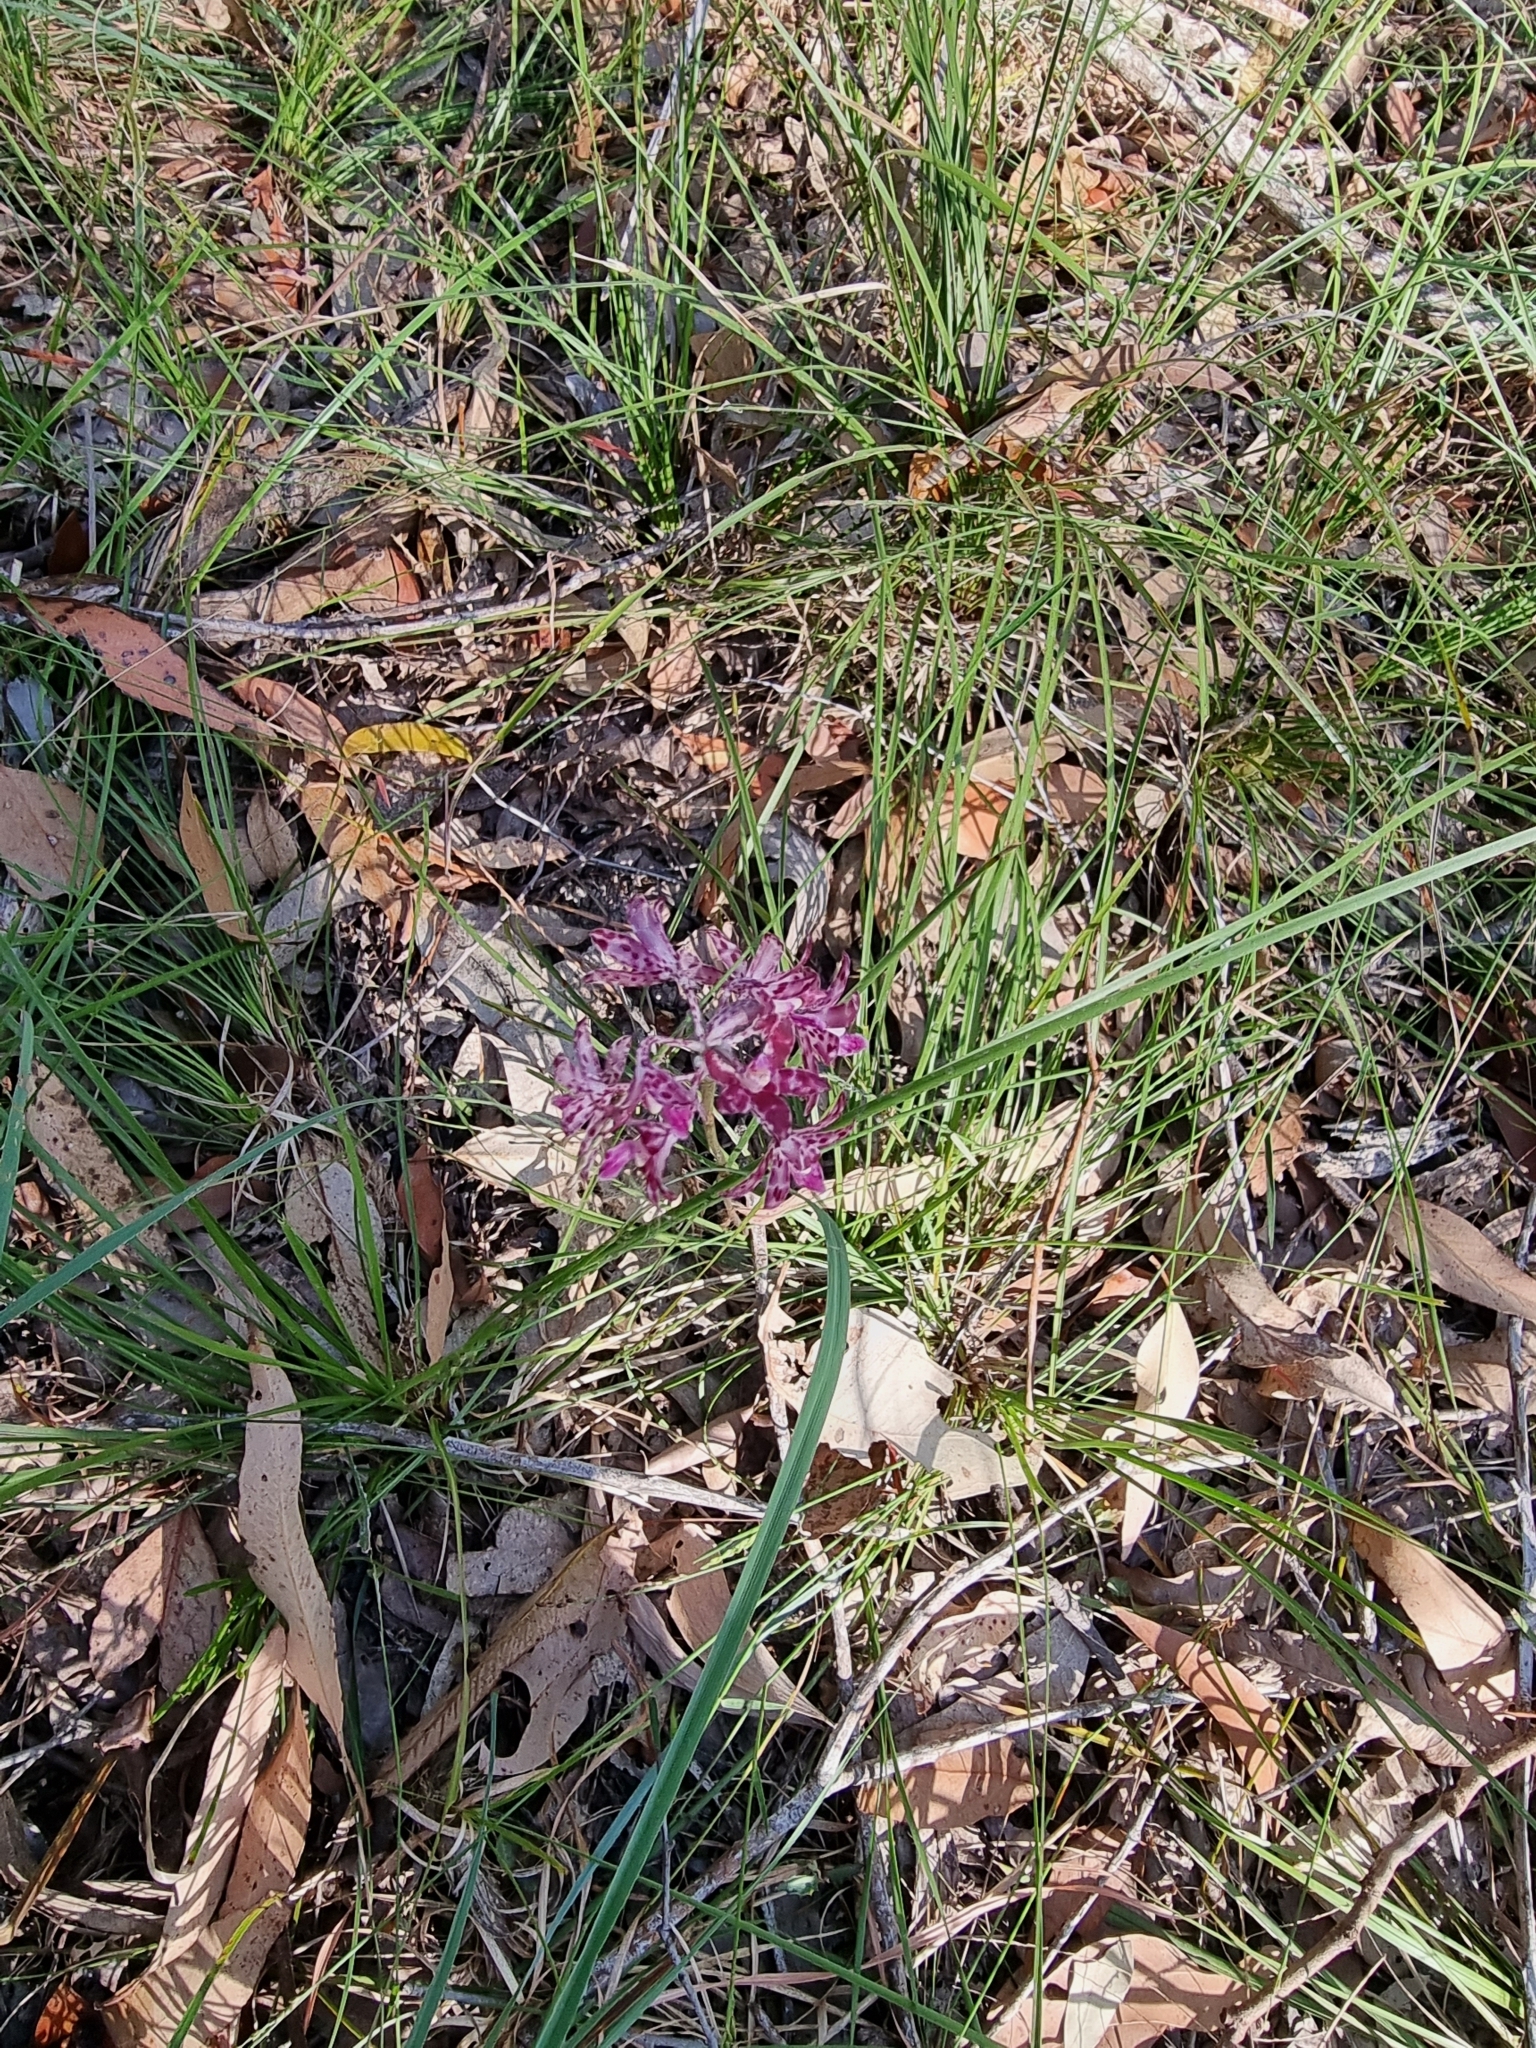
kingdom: Plantae
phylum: Tracheophyta
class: Liliopsida
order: Asparagales
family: Orchidaceae
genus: Dipodium
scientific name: Dipodium variegatum
